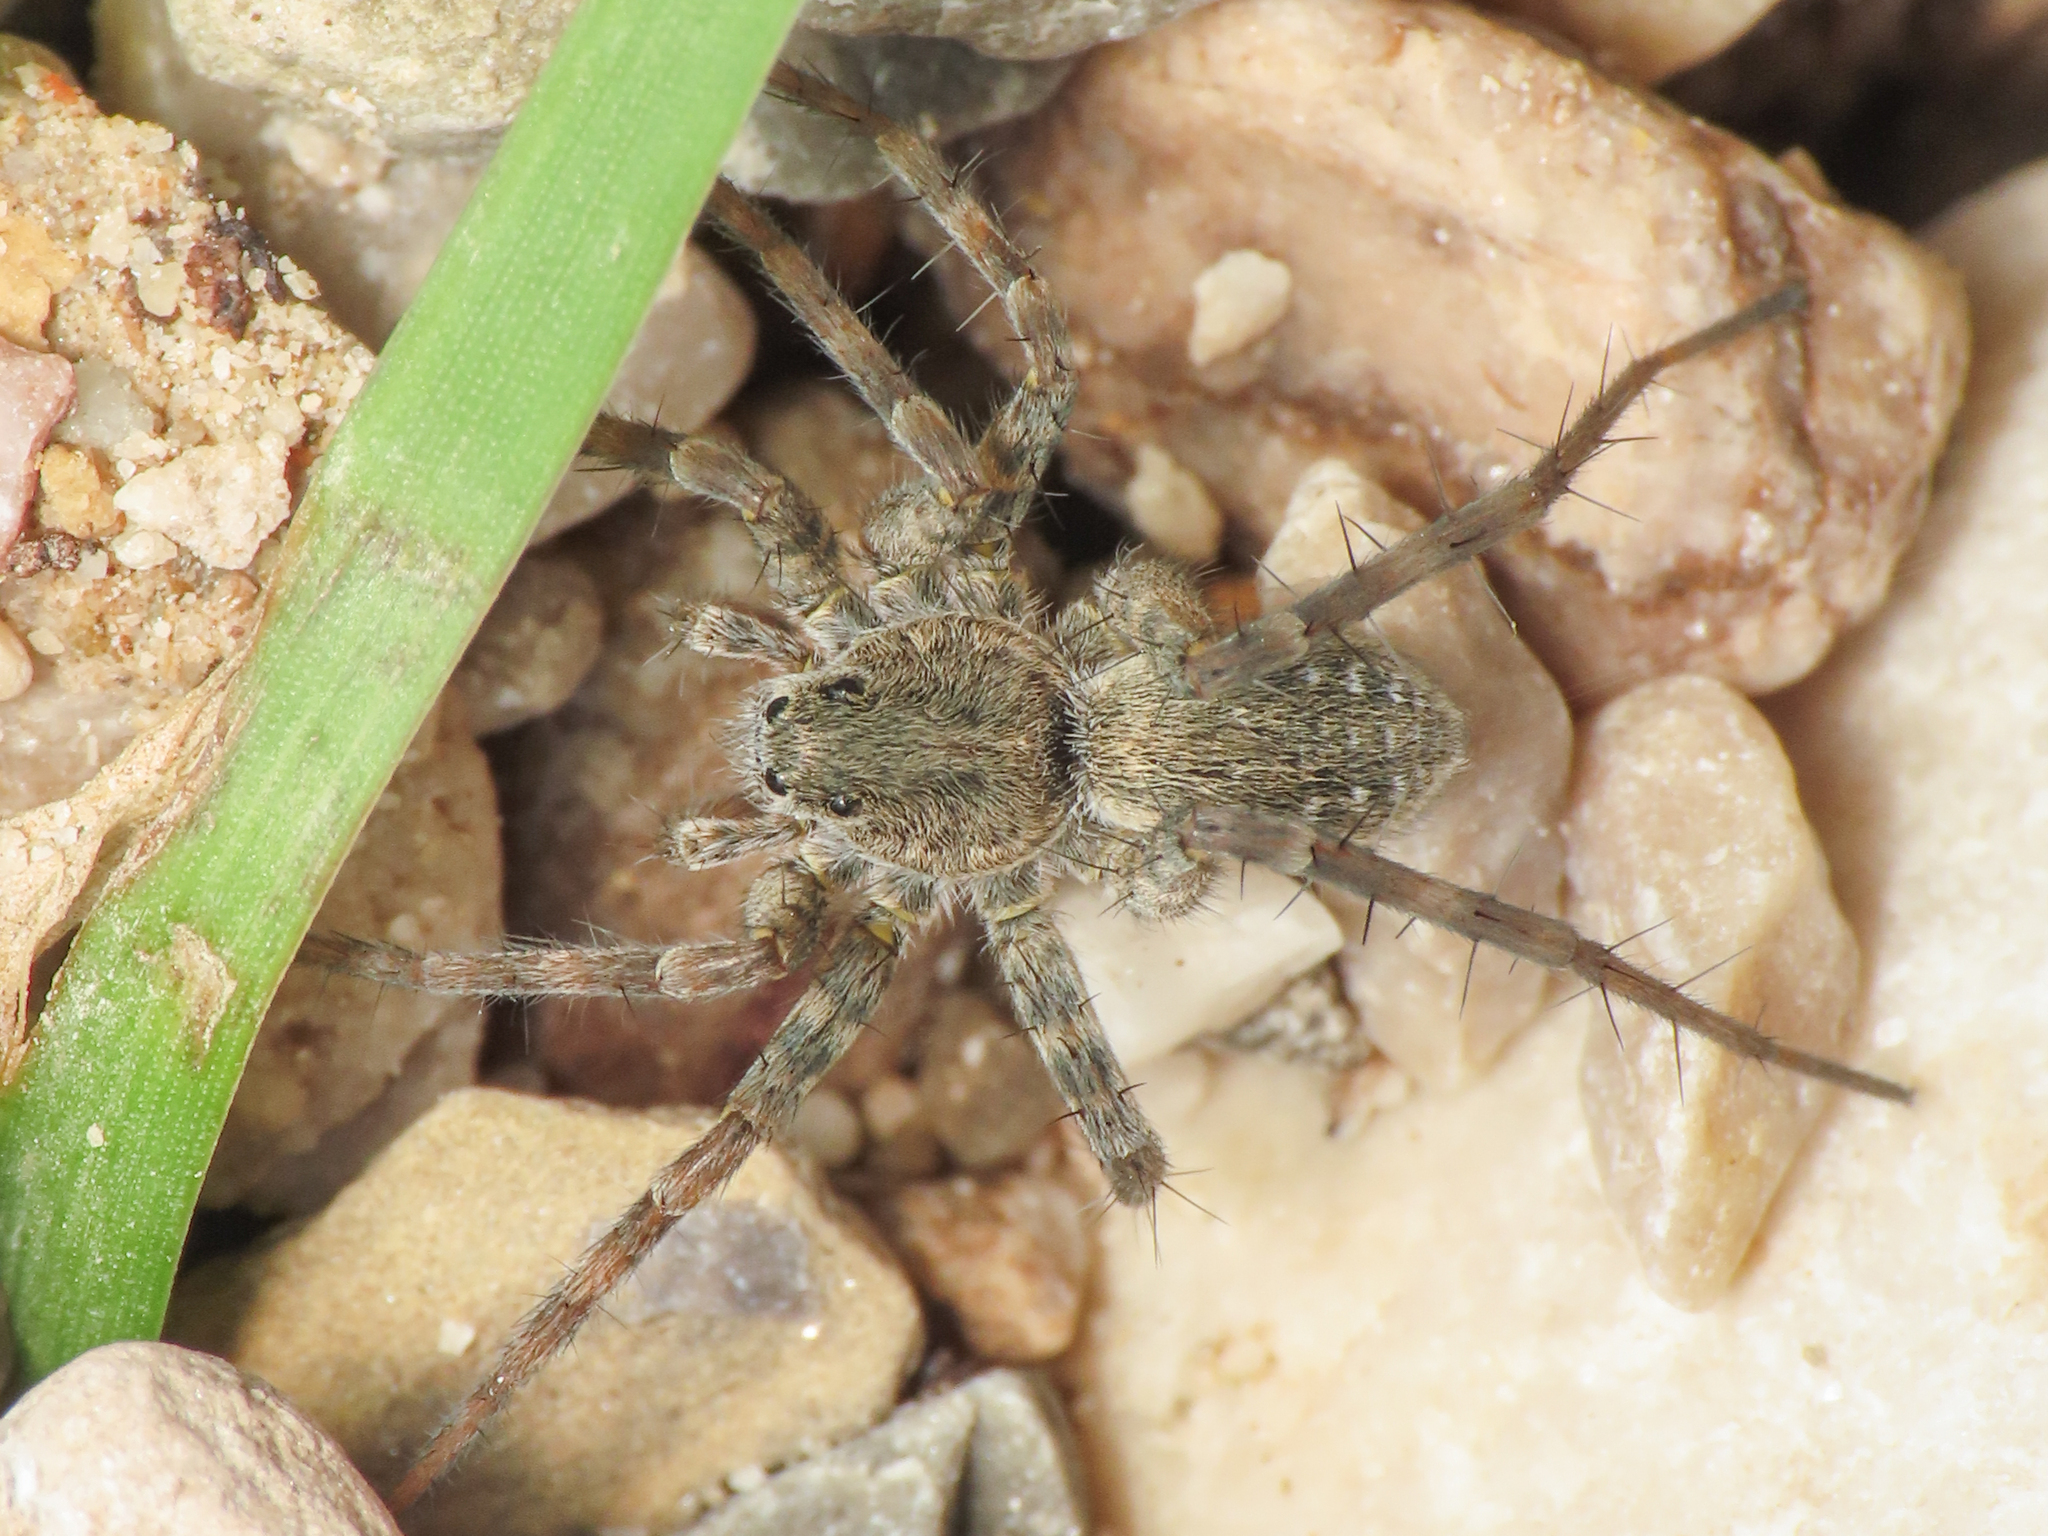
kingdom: Animalia
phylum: Arthropoda
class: Arachnida
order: Araneae
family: Lycosidae
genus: Pardosa
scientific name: Pardosa saturatior
